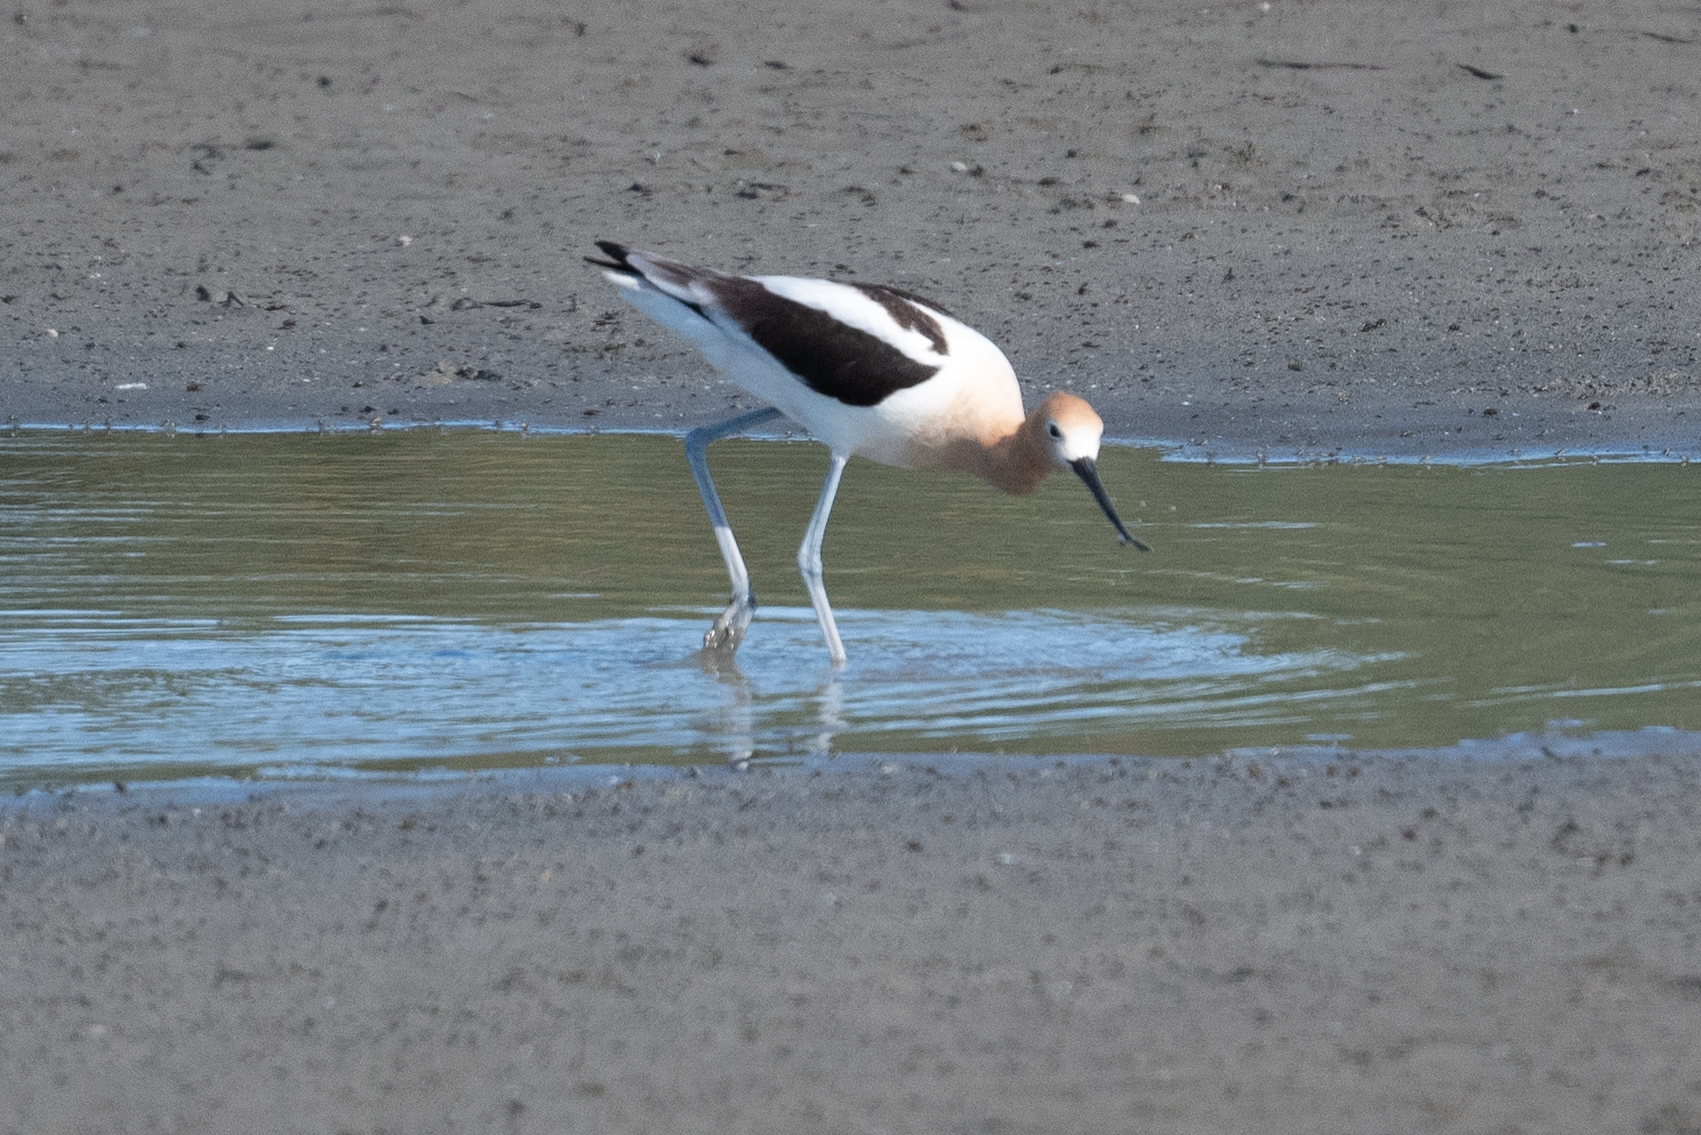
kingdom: Animalia
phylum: Chordata
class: Aves
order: Charadriiformes
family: Recurvirostridae
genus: Recurvirostra
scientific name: Recurvirostra americana
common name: American avocet
